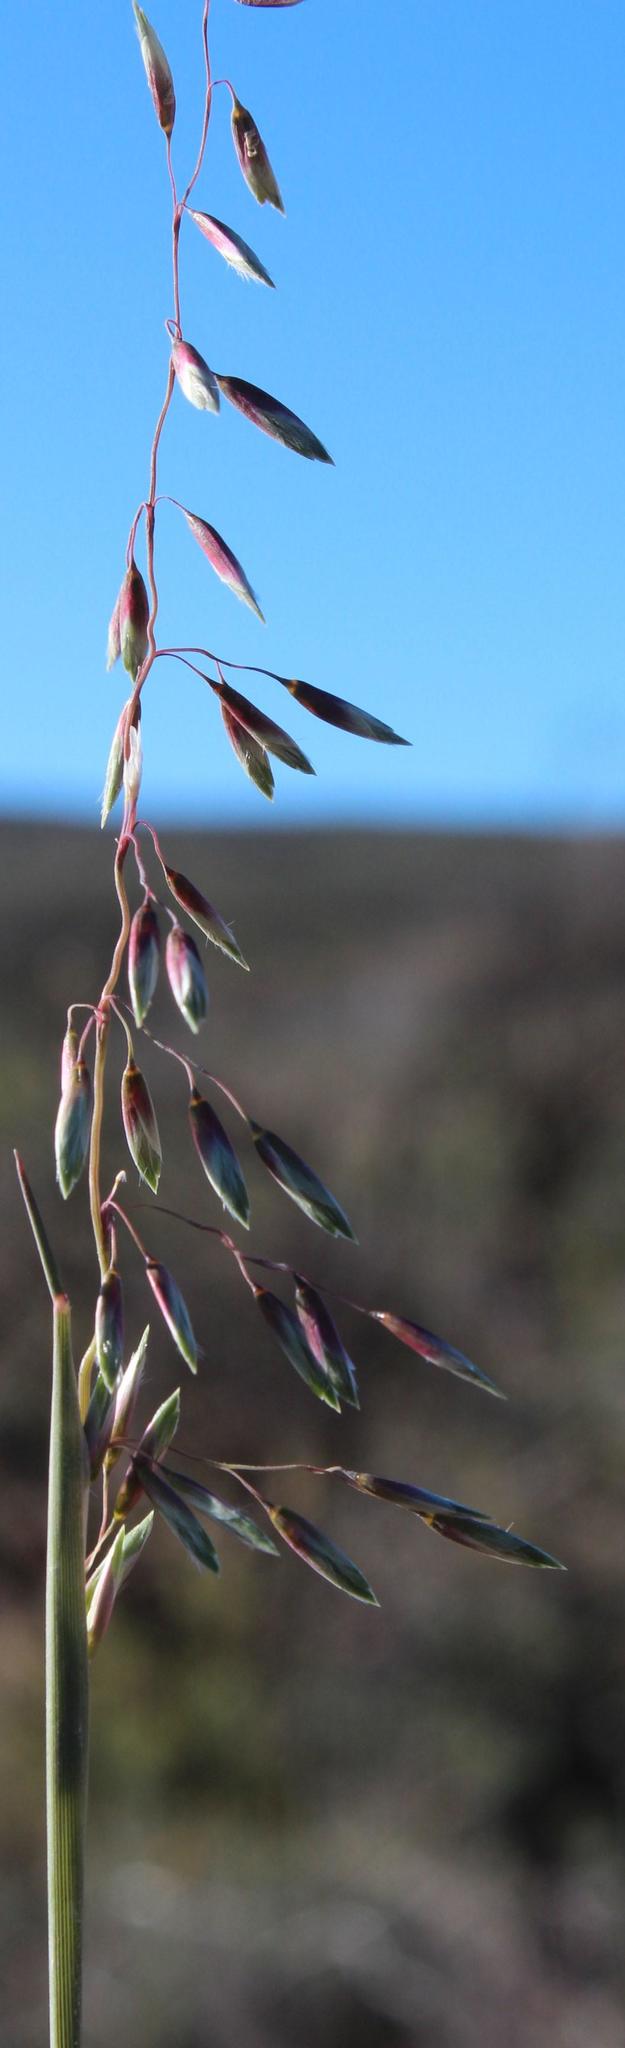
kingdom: Plantae
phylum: Tracheophyta
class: Liliopsida
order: Poales
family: Poaceae
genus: Ehrharta
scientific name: Ehrharta calycina
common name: Perennial veldtgrass
